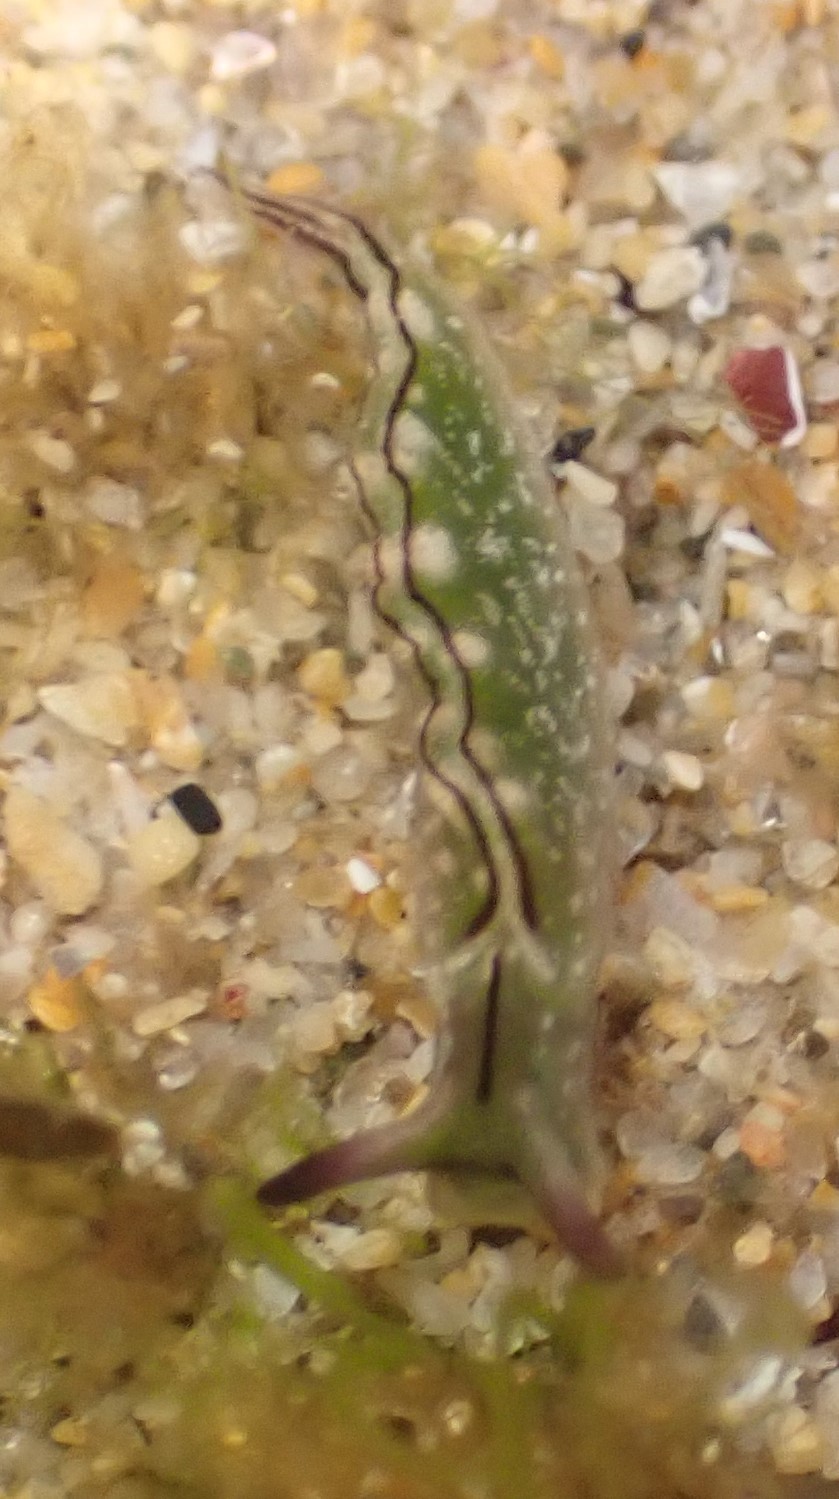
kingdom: Animalia
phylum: Mollusca
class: Gastropoda
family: Plakobranchidae
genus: Elysia
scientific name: Elysia coodgeensis
